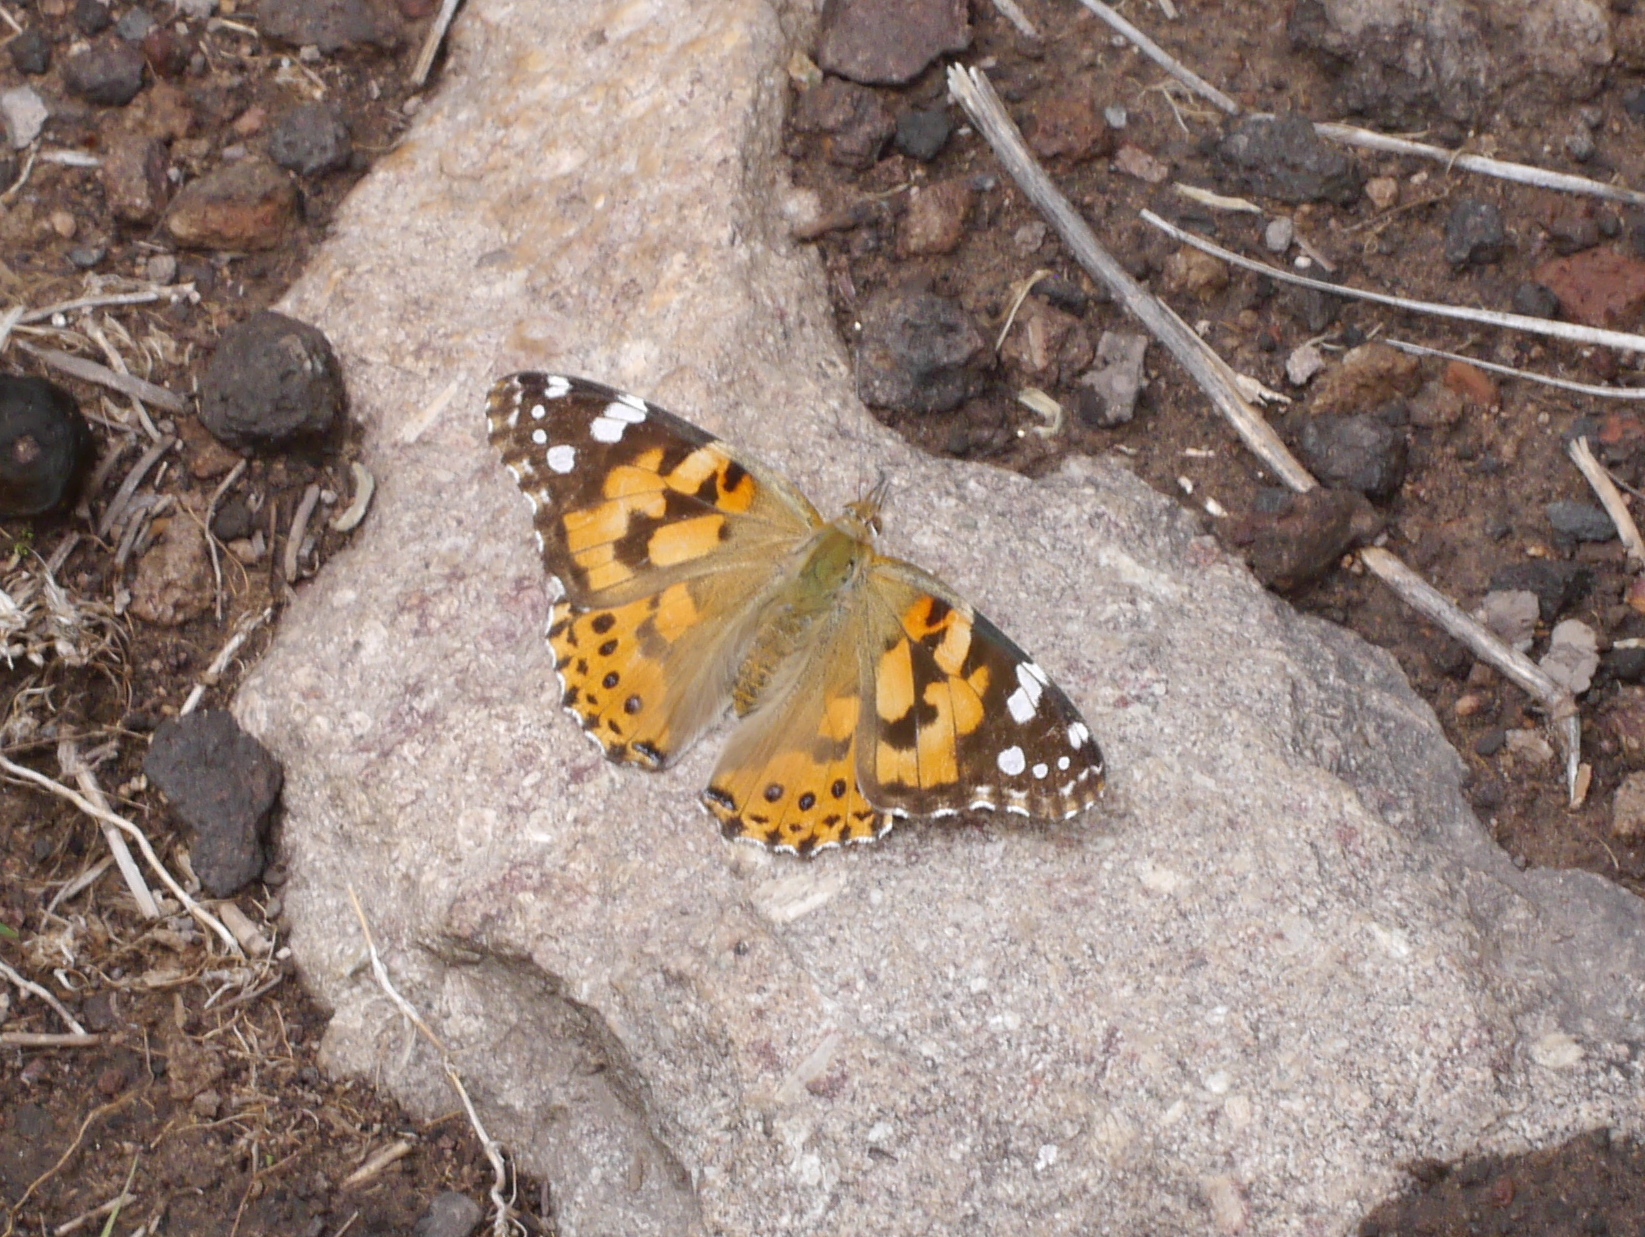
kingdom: Animalia
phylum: Arthropoda
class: Insecta
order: Lepidoptera
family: Nymphalidae
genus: Vanessa
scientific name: Vanessa cardui
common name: Painted lady
